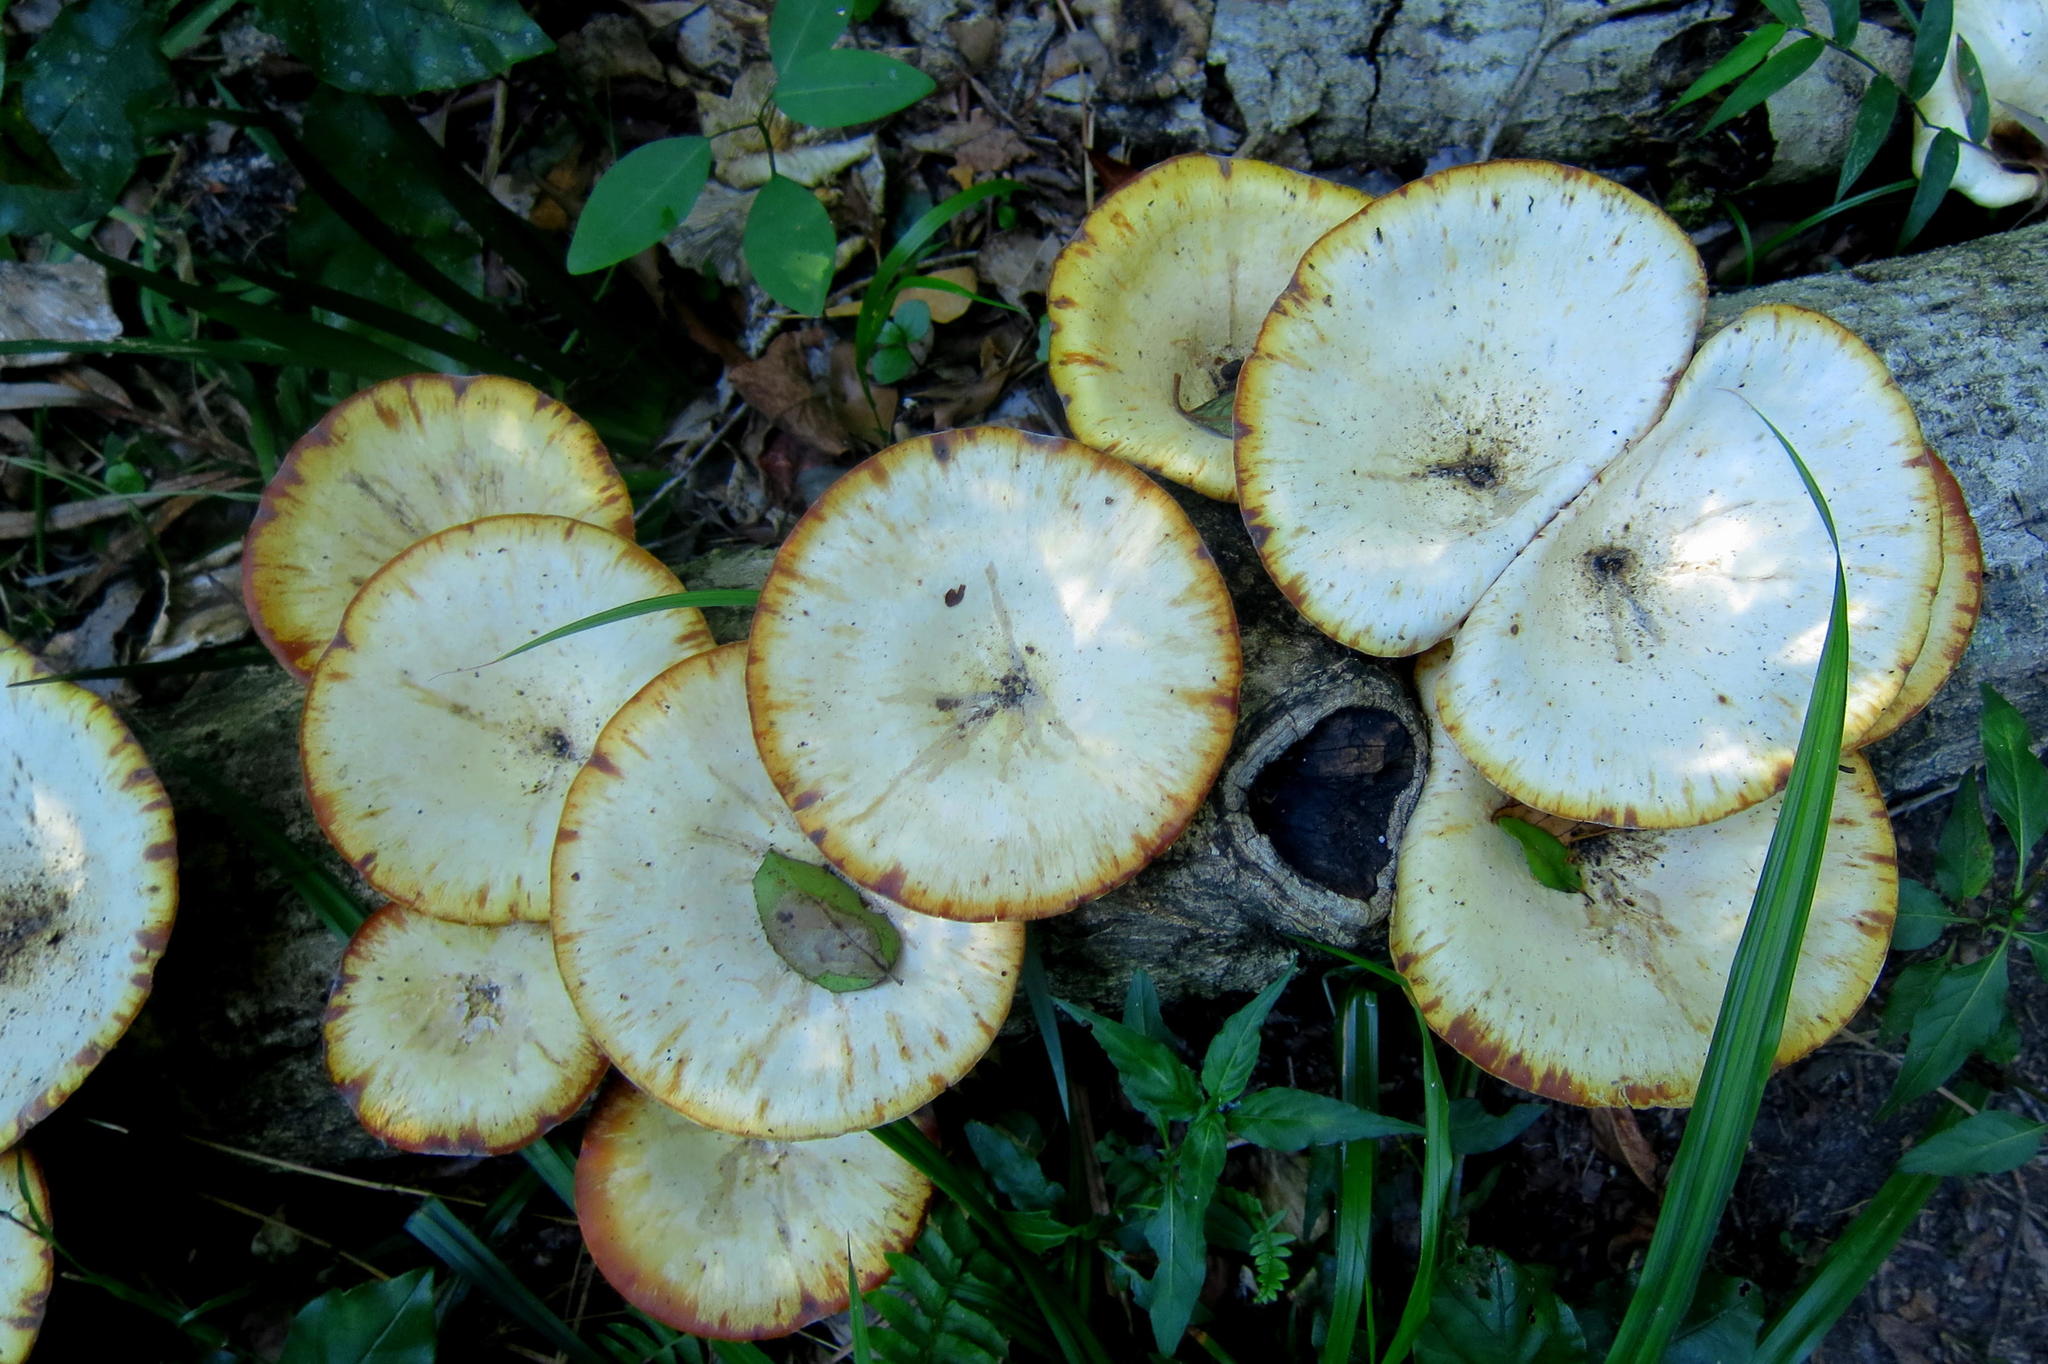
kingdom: Fungi
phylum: Basidiomycota
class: Agaricomycetes
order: Polyporales
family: Polyporaceae
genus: Lentinus
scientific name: Lentinus sajor-caju
